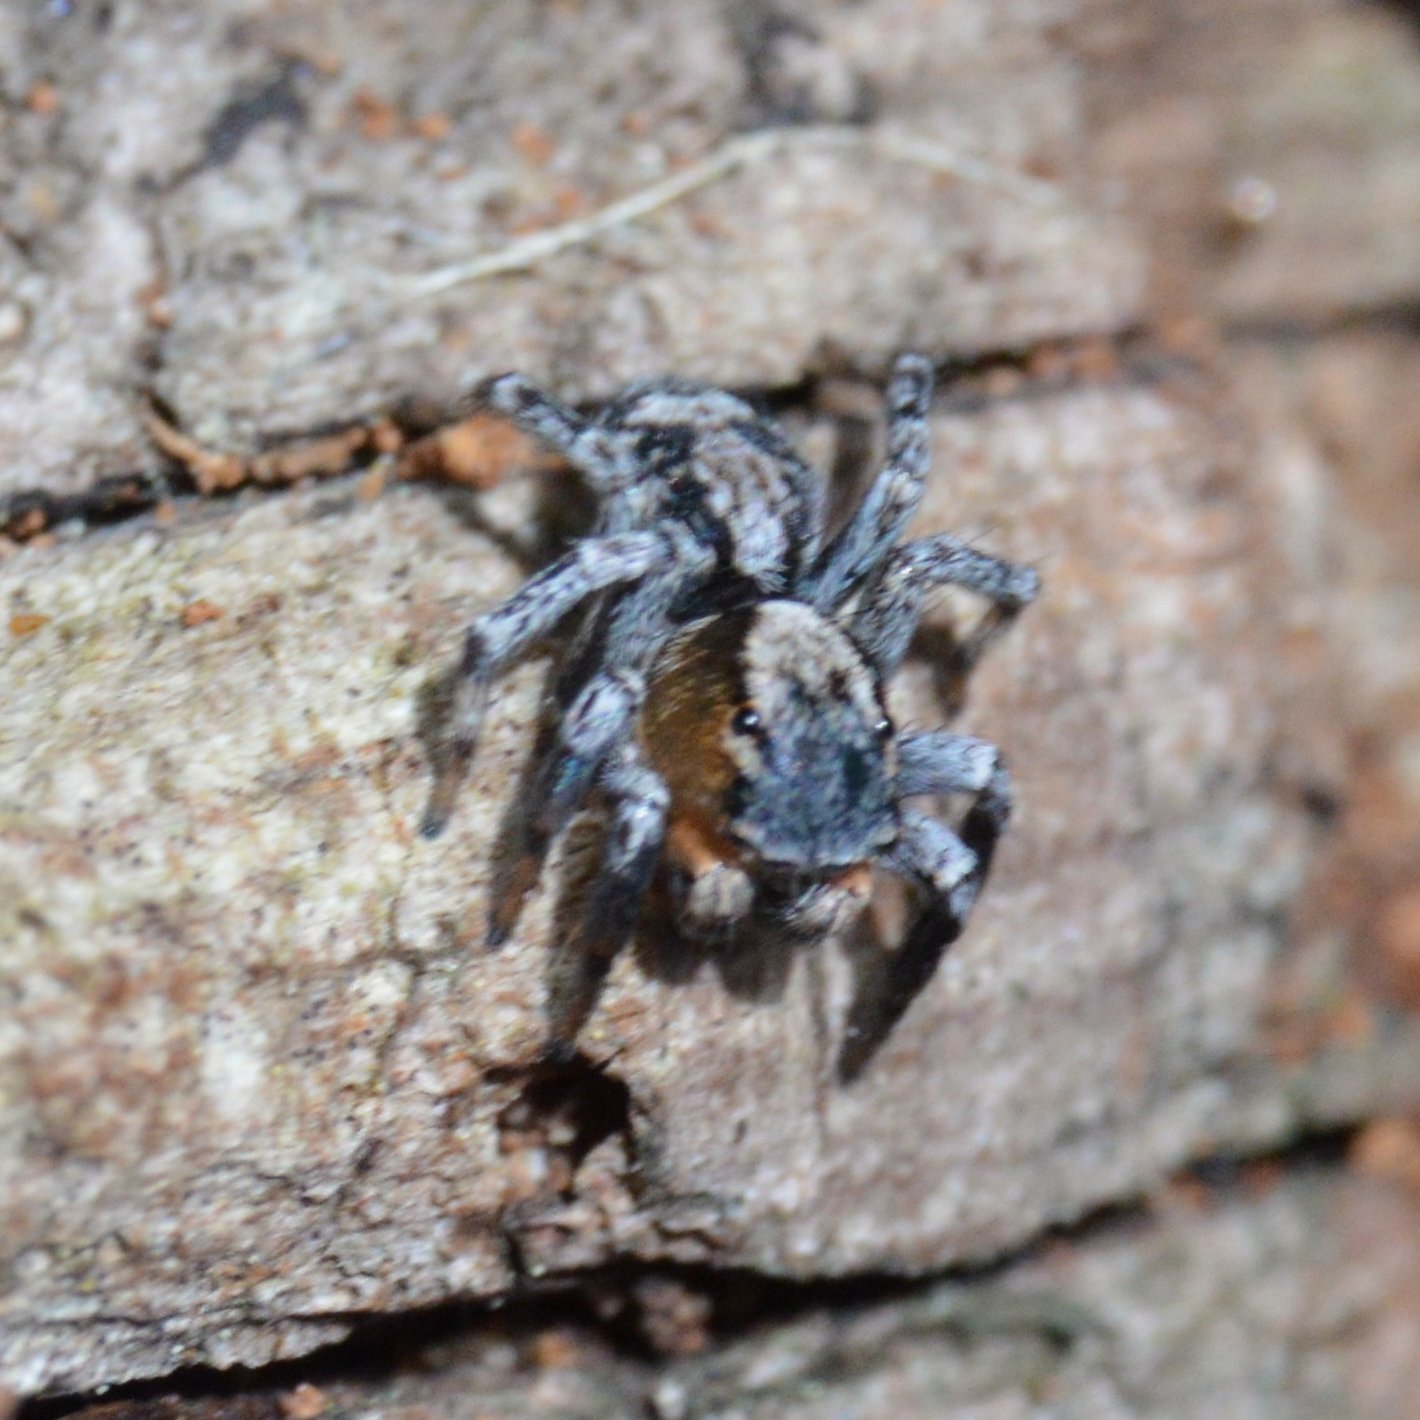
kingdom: Animalia
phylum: Arthropoda
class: Arachnida
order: Araneae
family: Salticidae
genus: Naphrys
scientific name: Naphrys pulex
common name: Flea jumping spider
